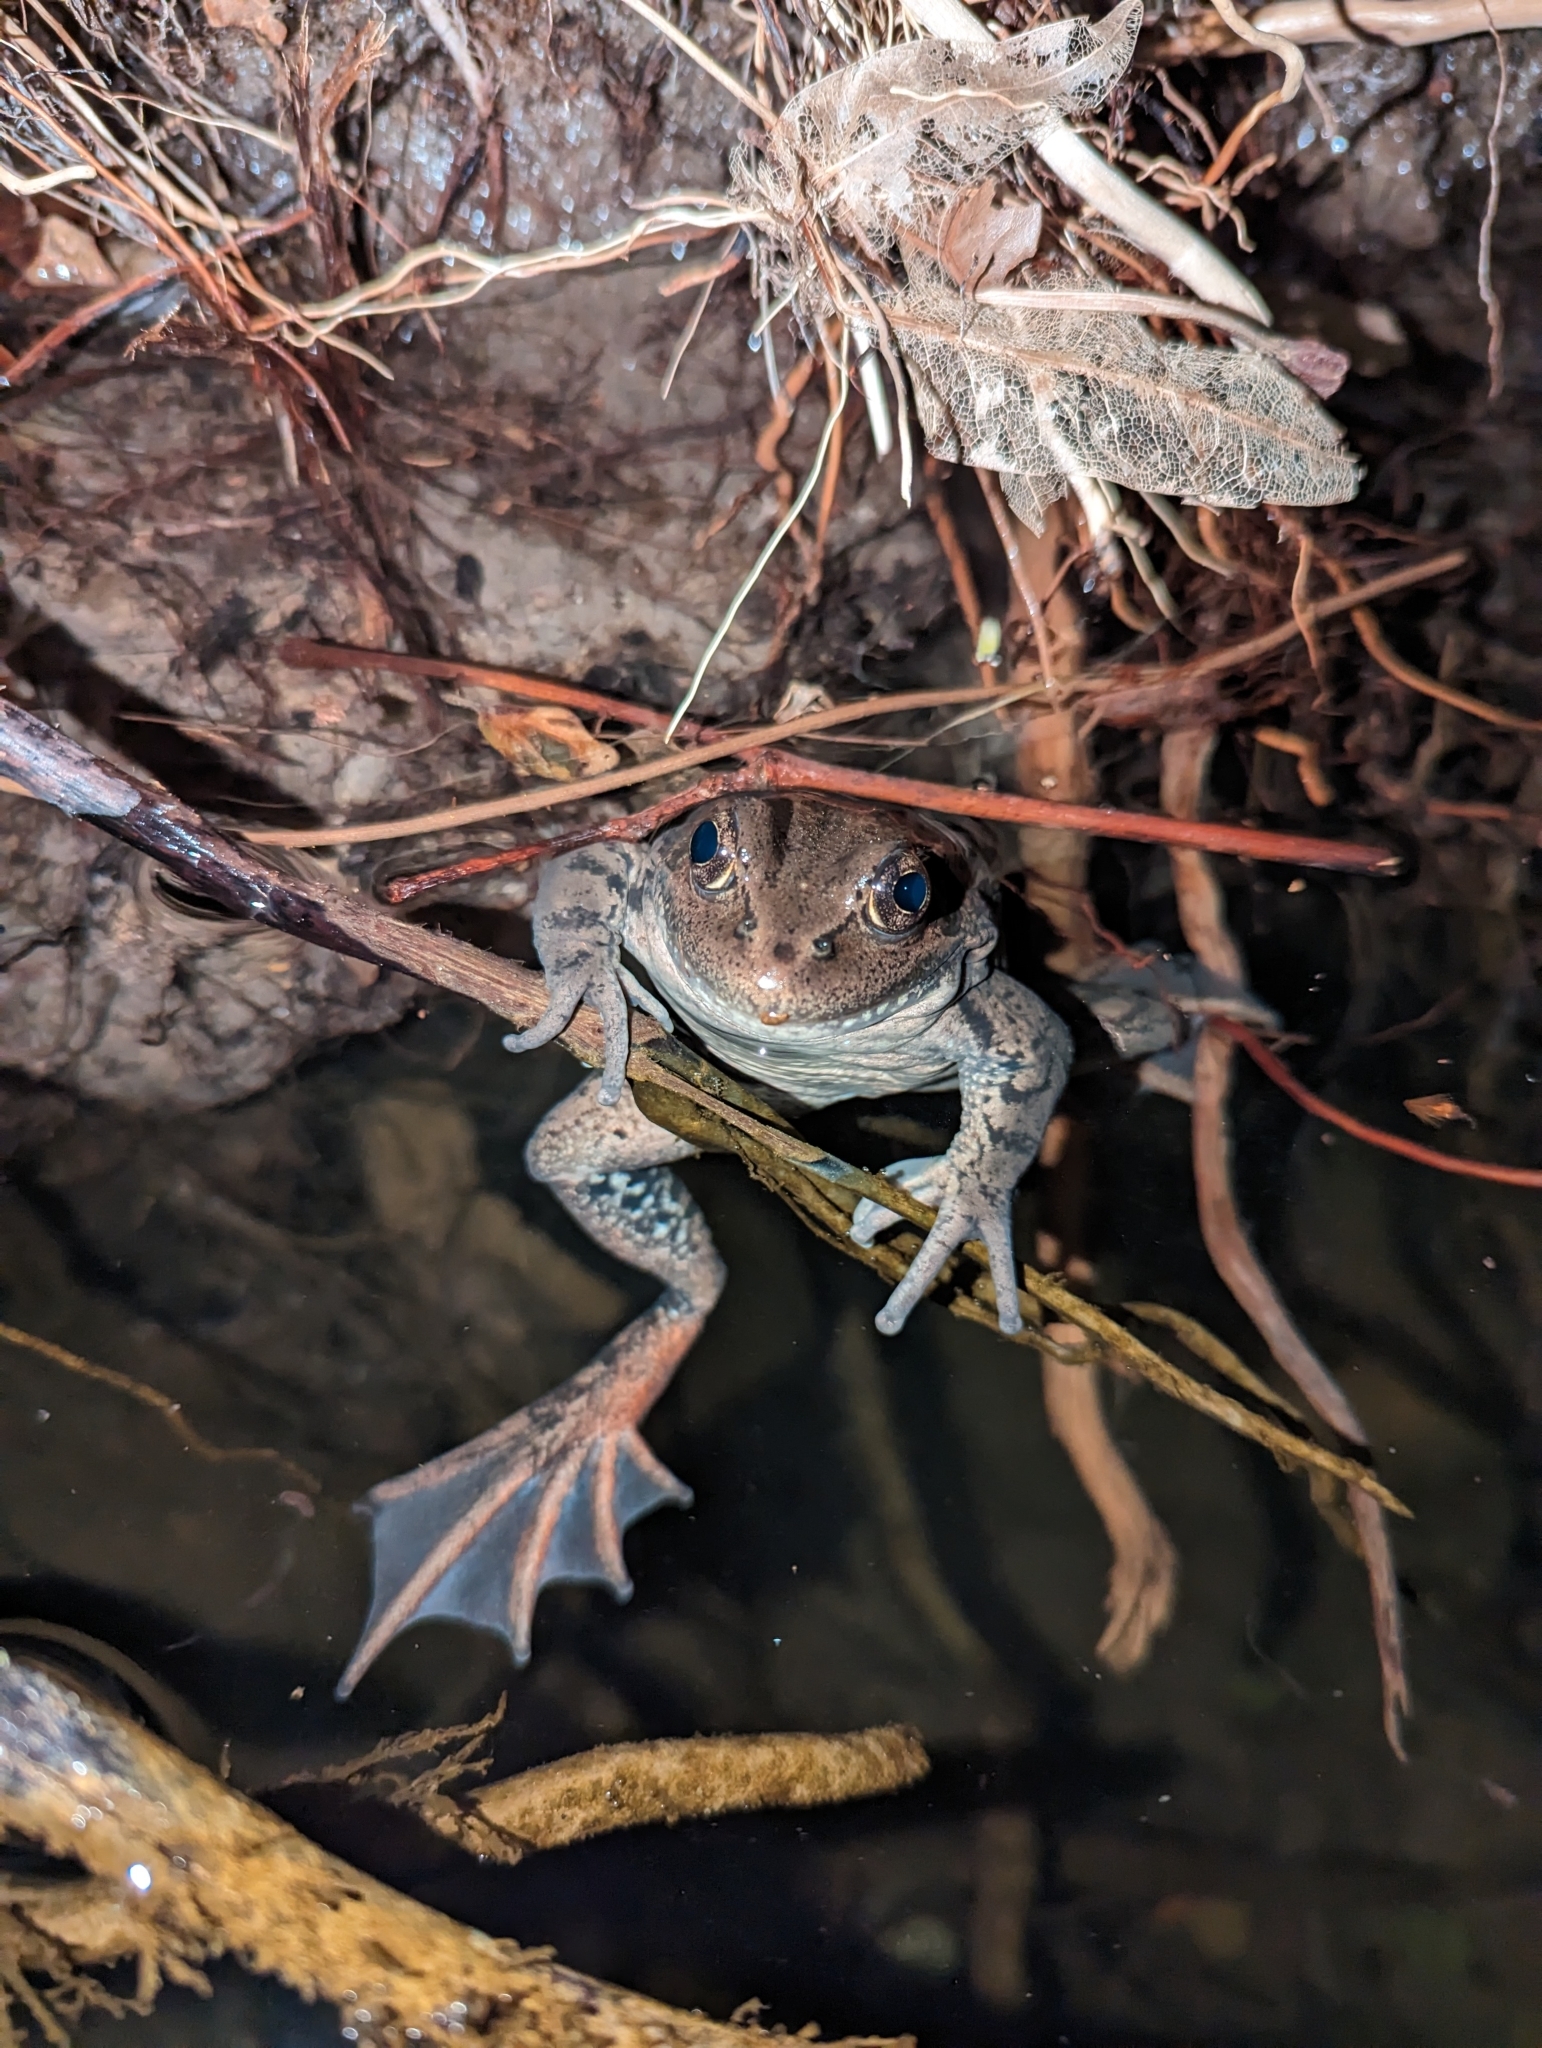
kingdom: Animalia
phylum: Chordata
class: Amphibia
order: Anura
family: Ranidae
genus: Rana
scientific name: Rana draytonii
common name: California red-legged frog
